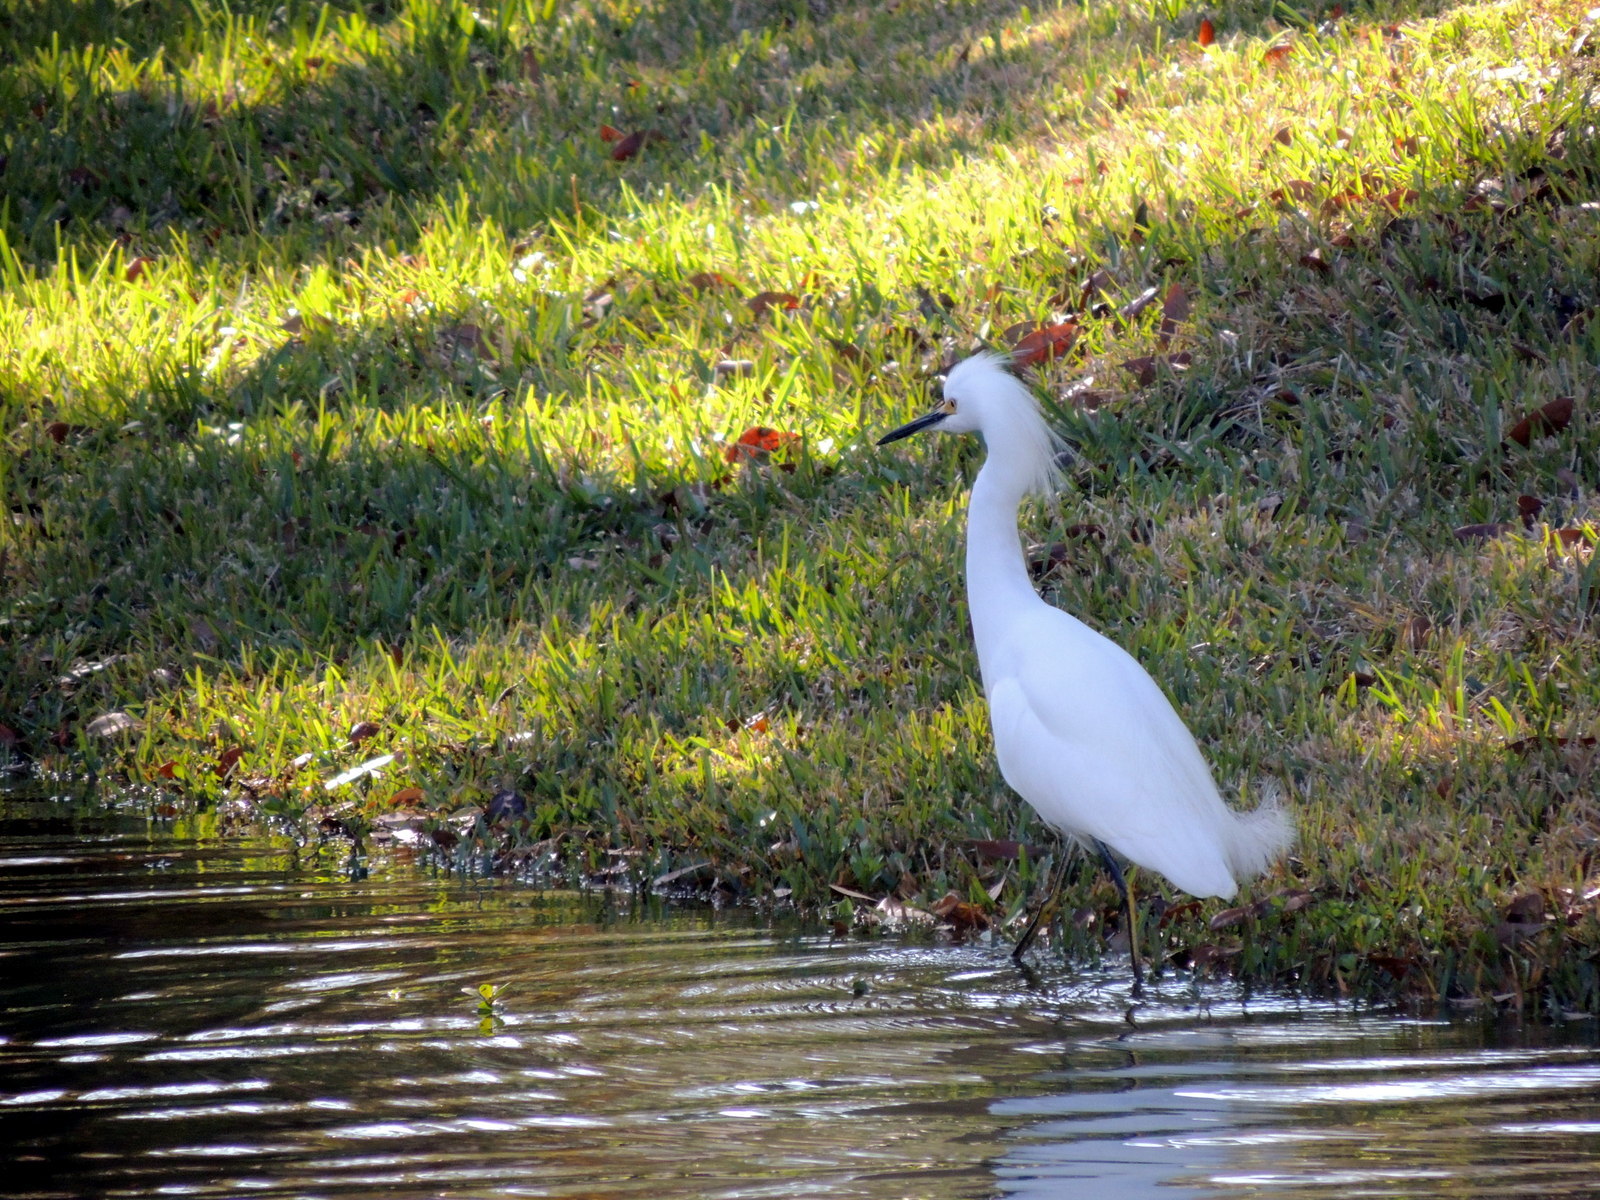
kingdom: Animalia
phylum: Chordata
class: Aves
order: Pelecaniformes
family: Ardeidae
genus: Egretta
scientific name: Egretta thula
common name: Snowy egret
